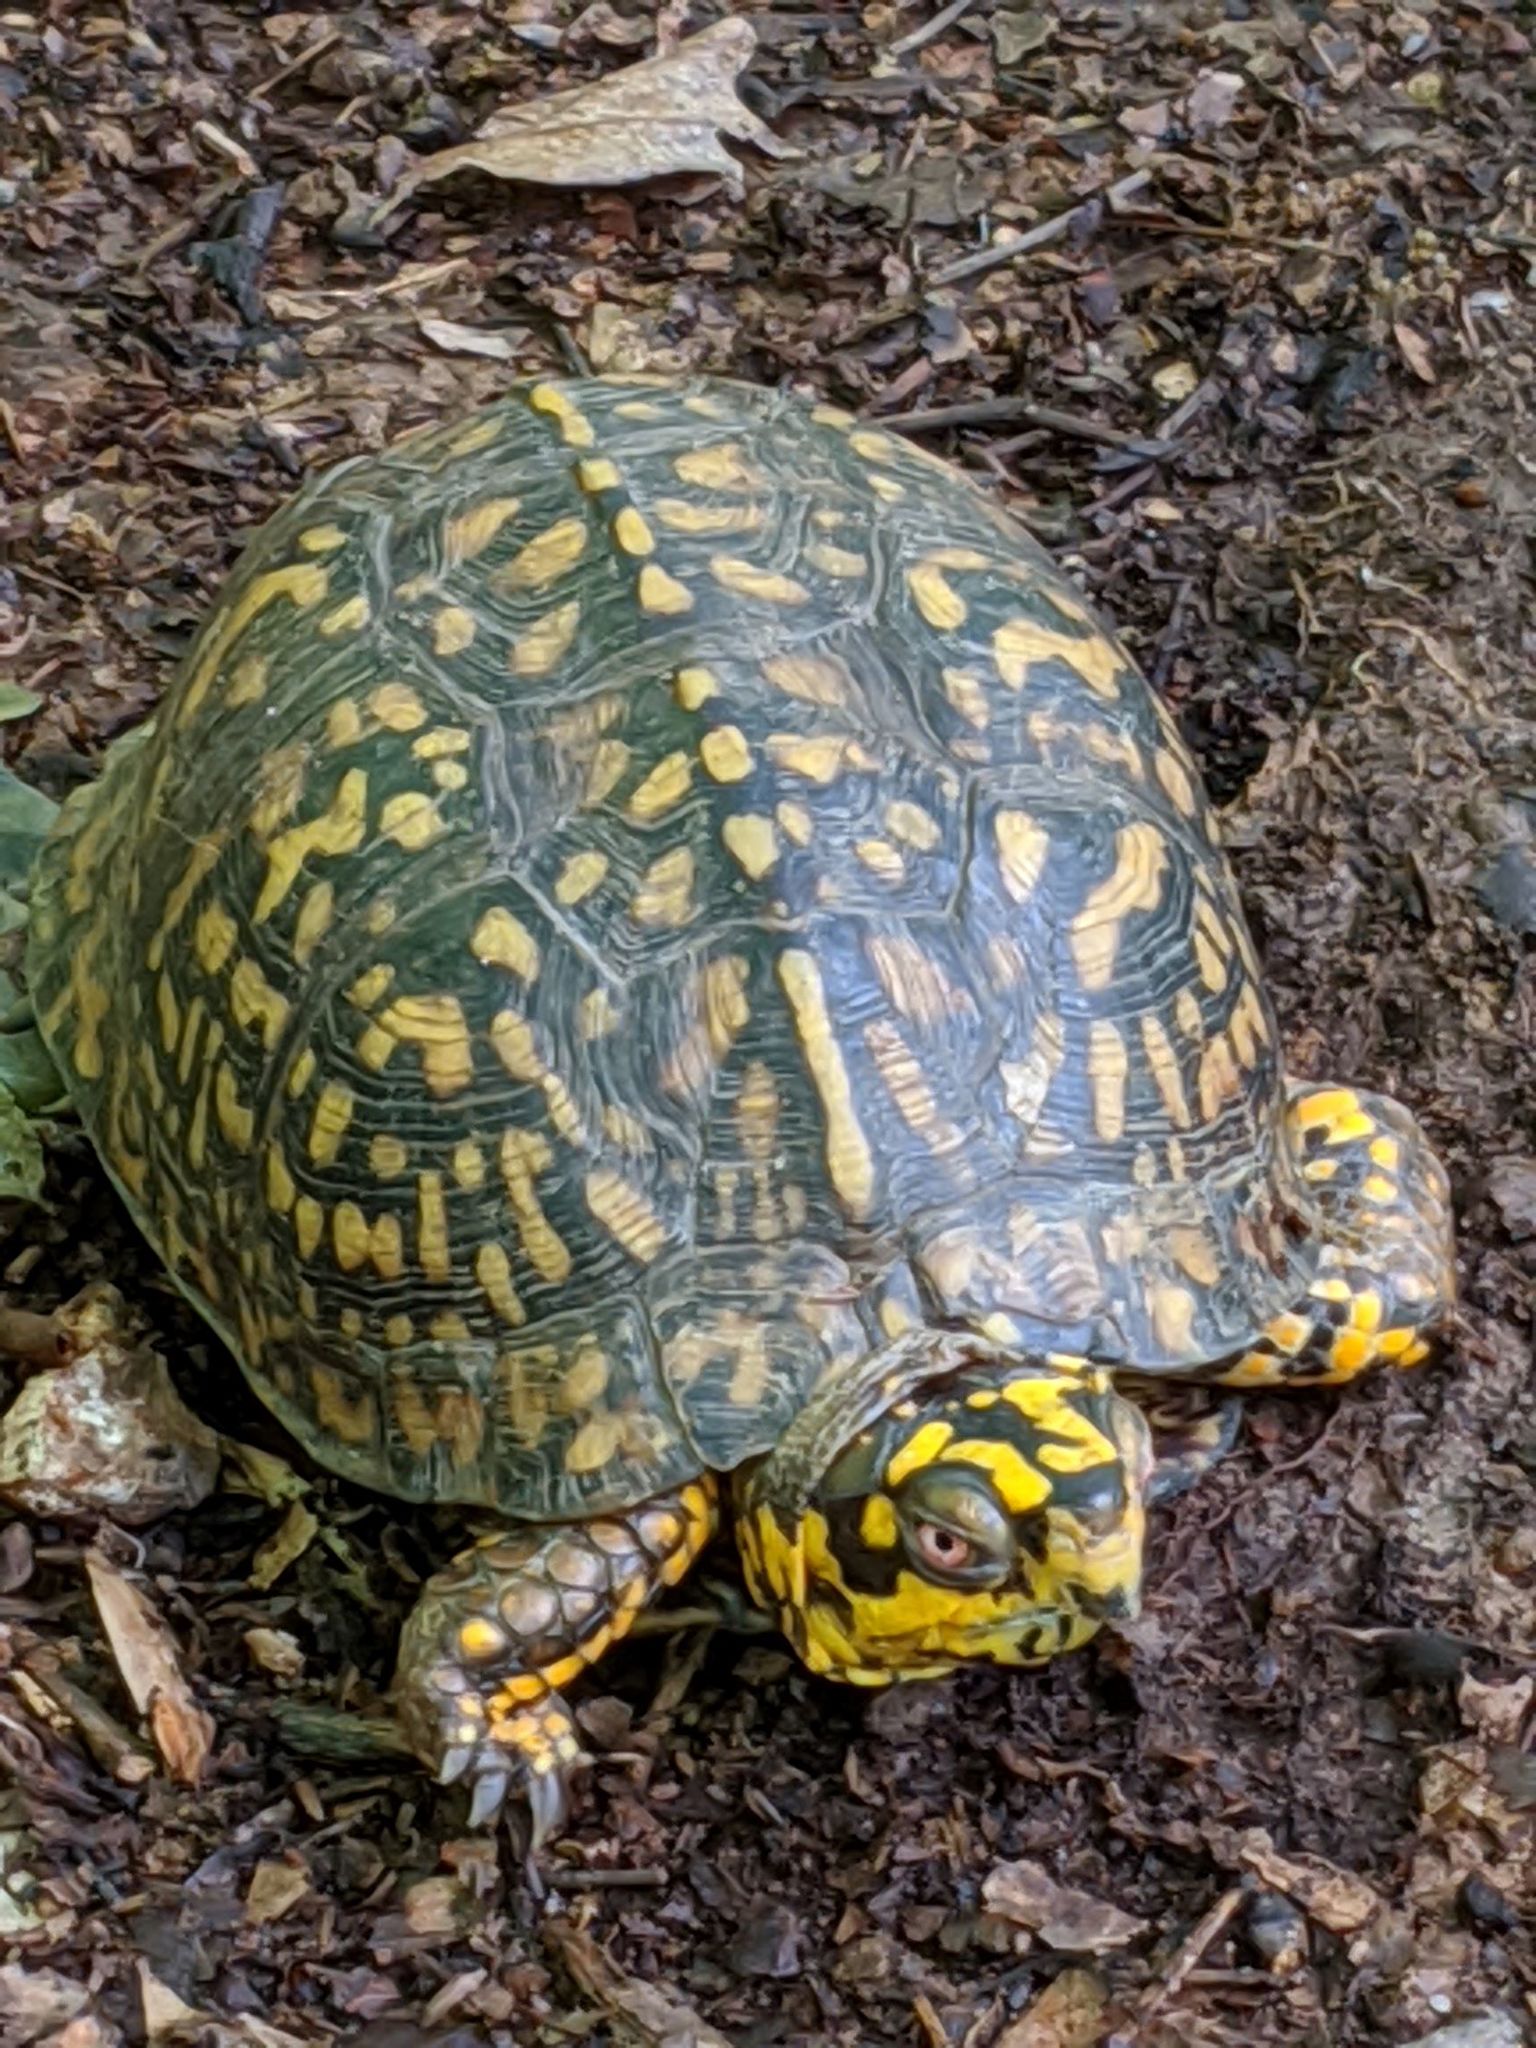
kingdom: Animalia
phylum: Chordata
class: Testudines
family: Emydidae
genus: Terrapene
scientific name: Terrapene carolina
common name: Common box turtle
